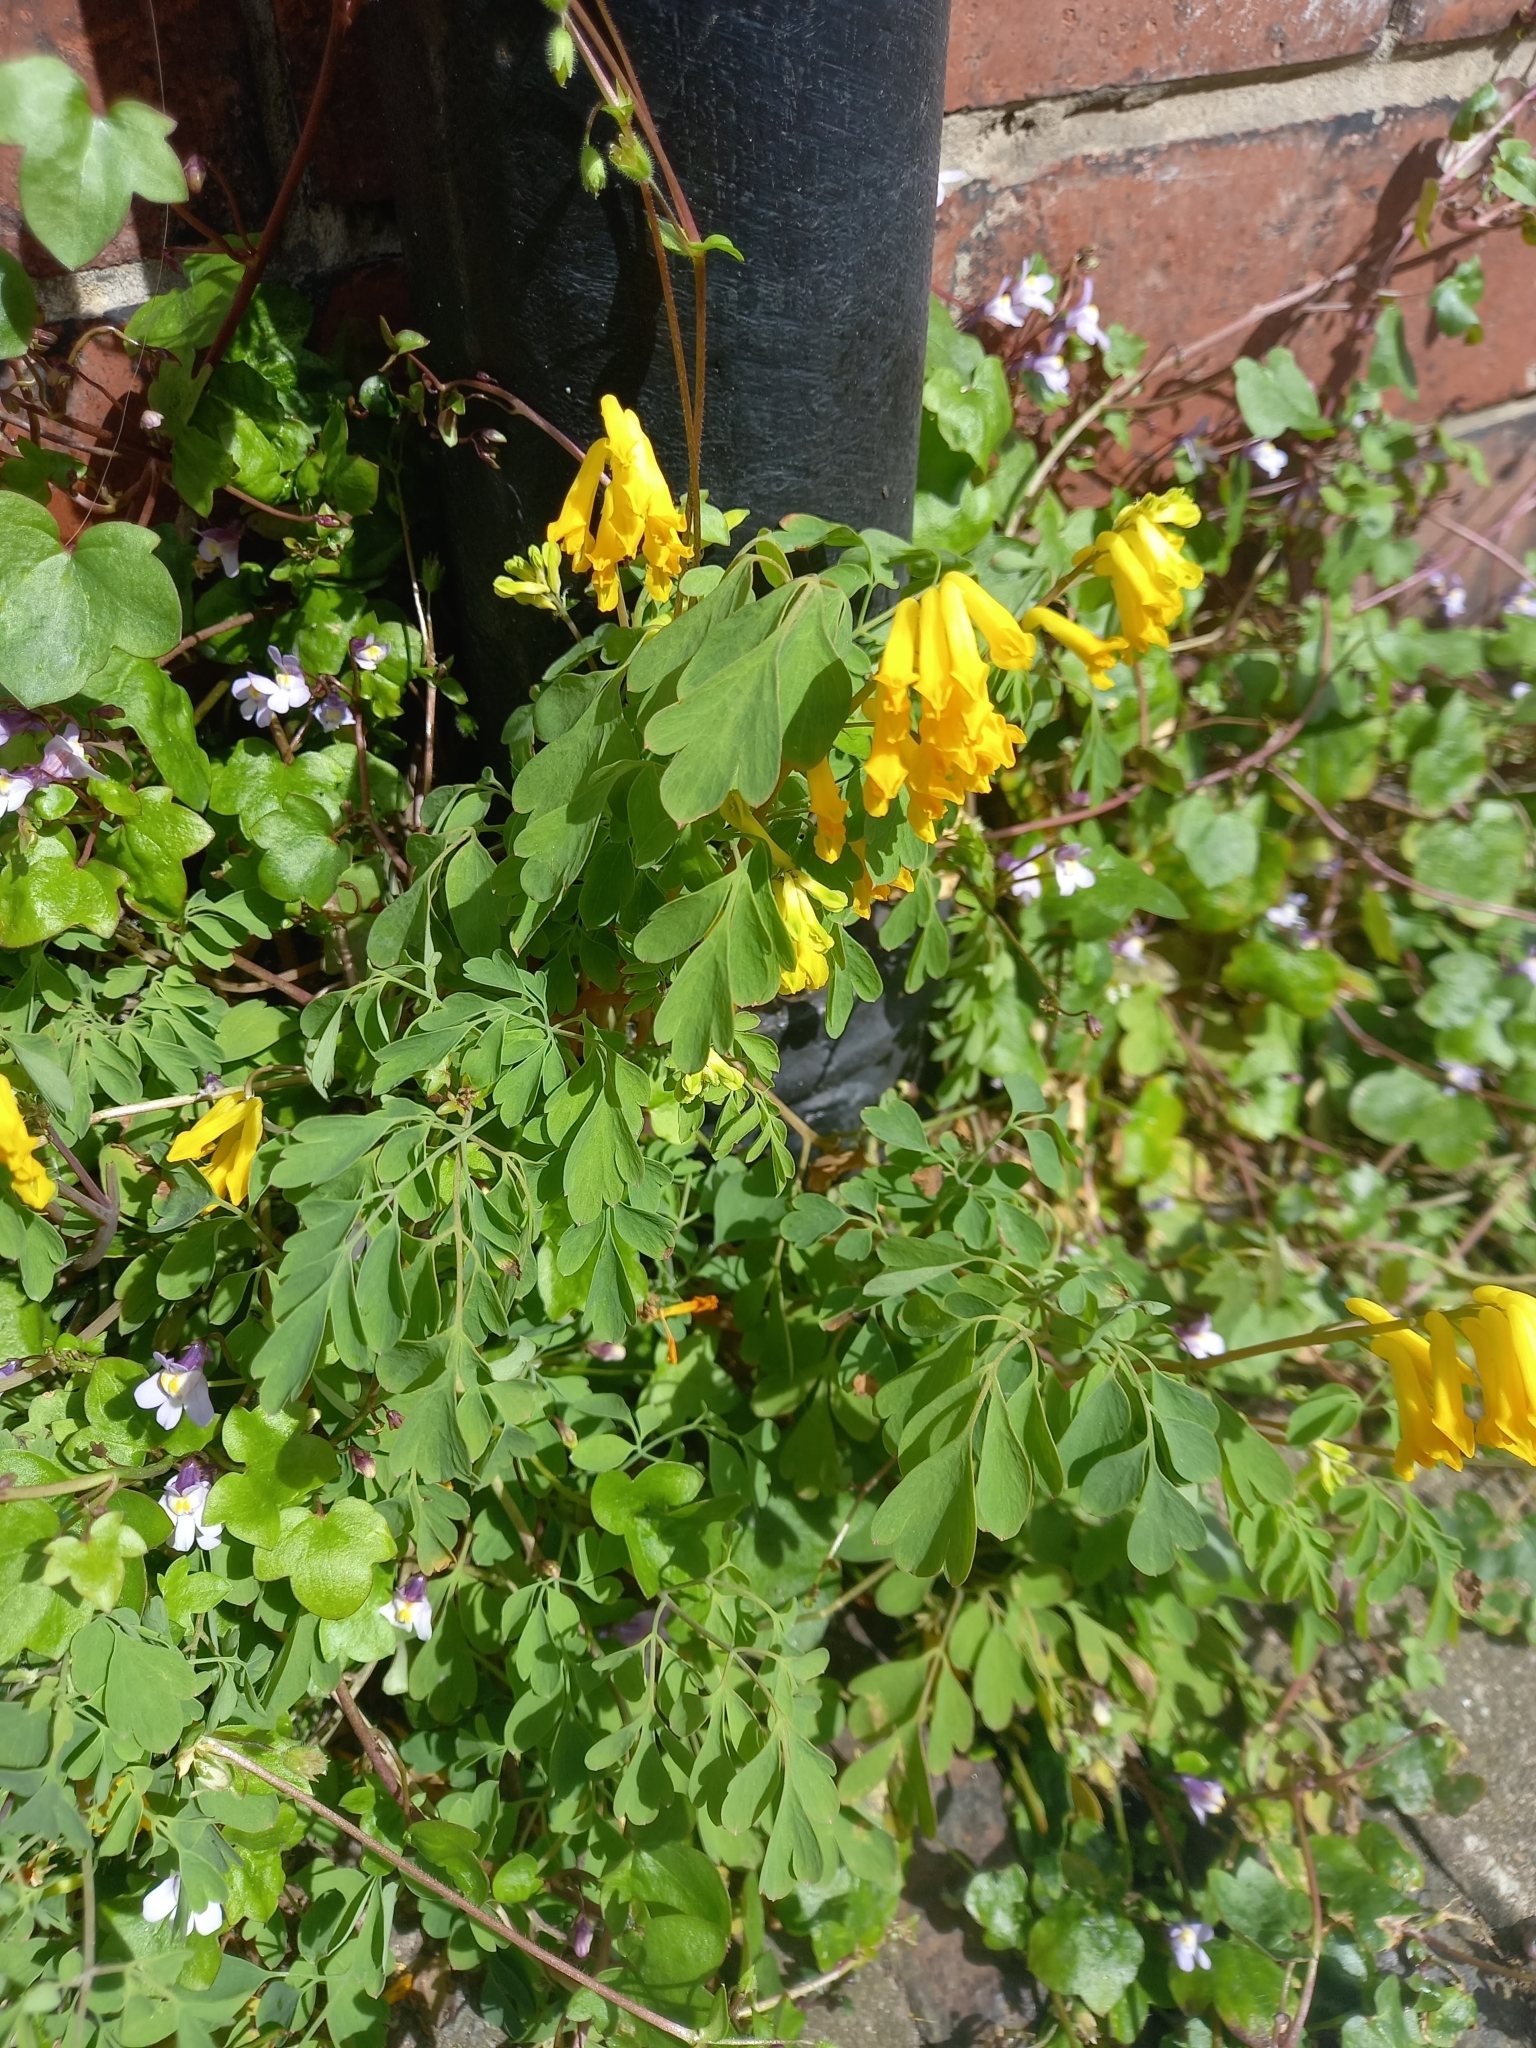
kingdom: Plantae
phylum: Tracheophyta
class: Magnoliopsida
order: Ranunculales
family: Papaveraceae
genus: Pseudofumaria
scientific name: Pseudofumaria lutea
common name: Yellow corydalis
